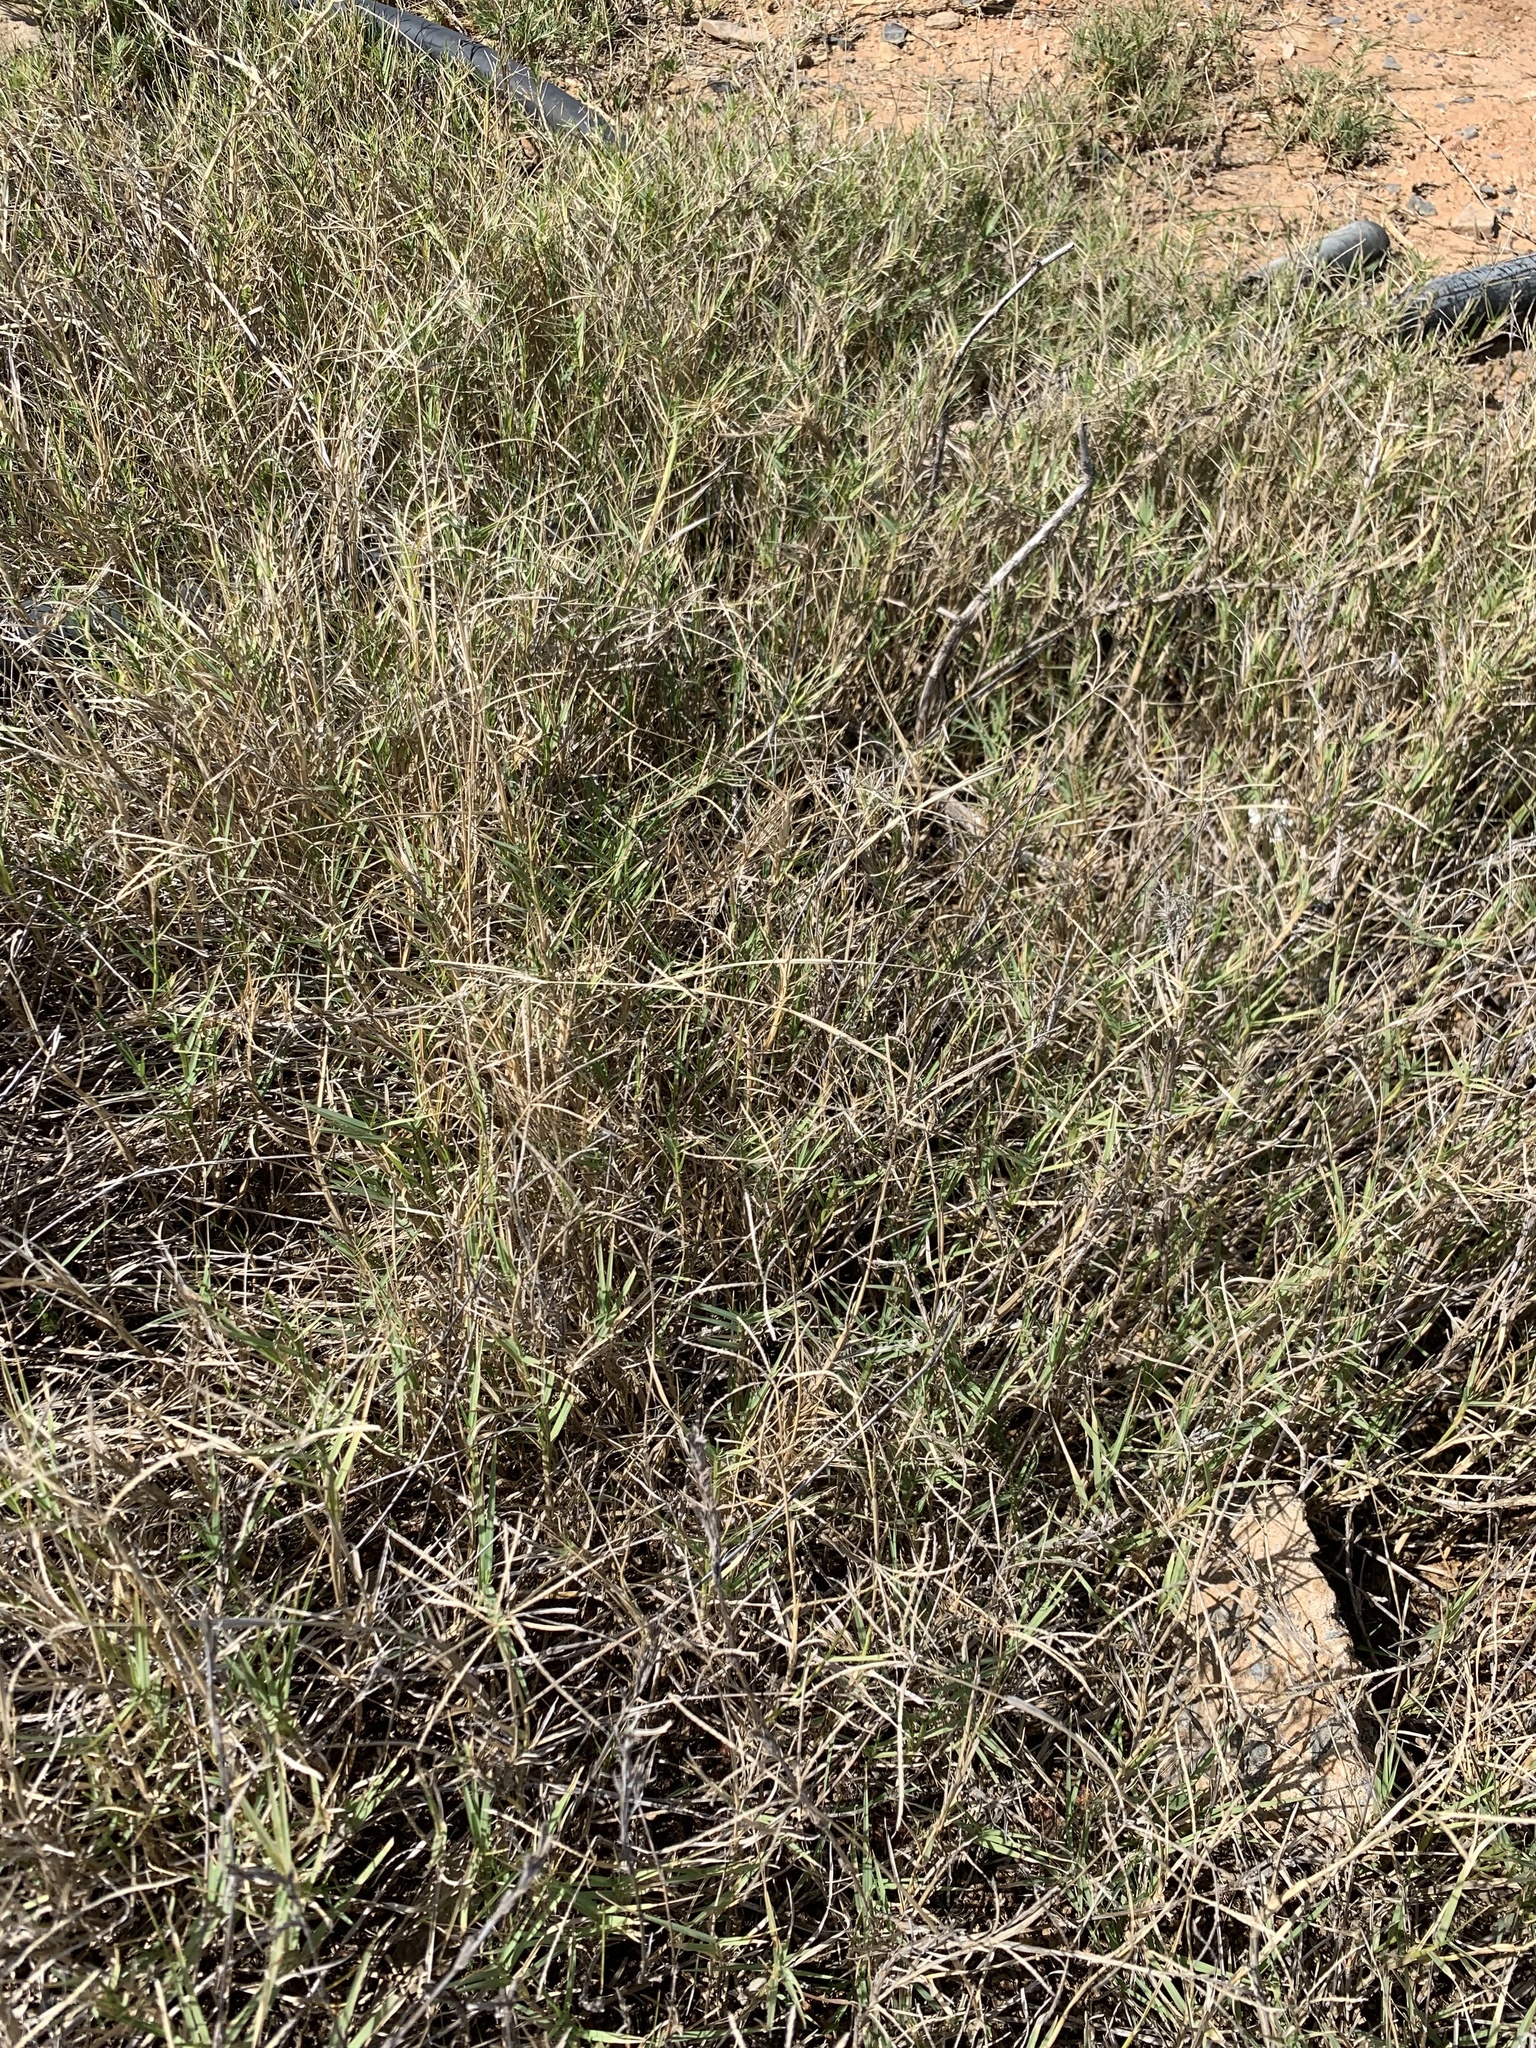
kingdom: Plantae
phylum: Tracheophyta
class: Liliopsida
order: Poales
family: Poaceae
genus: Cynodon
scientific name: Cynodon dactylon
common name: Bermuda grass
